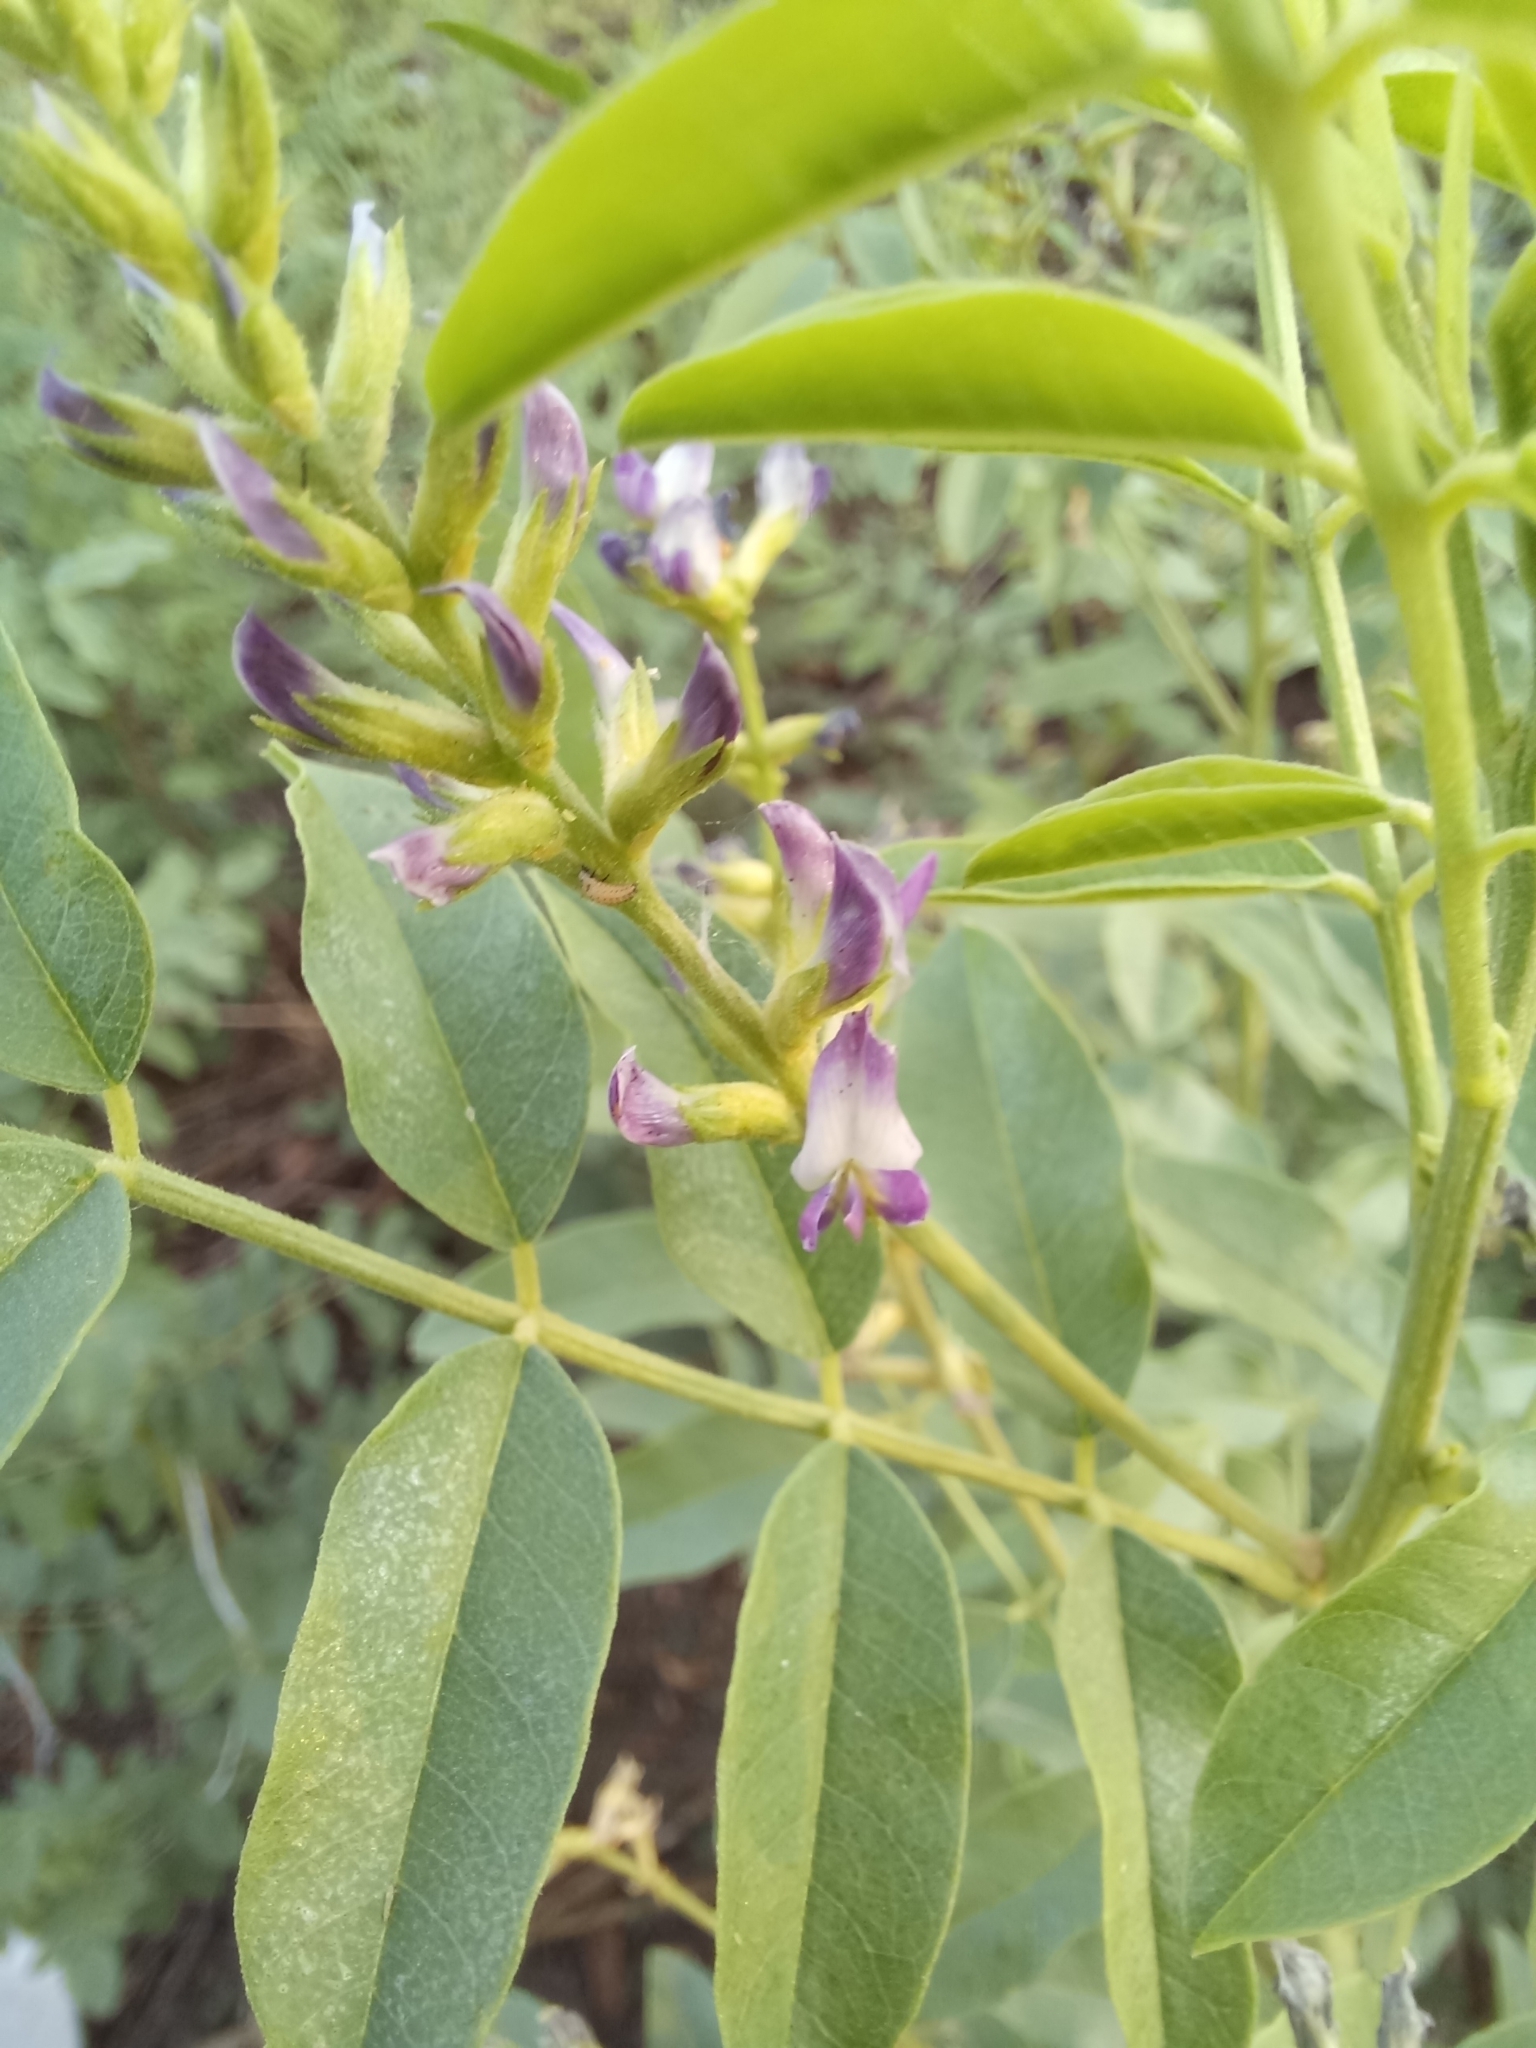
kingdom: Plantae
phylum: Tracheophyta
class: Magnoliopsida
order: Fabales
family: Fabaceae
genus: Glycyrrhiza
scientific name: Glycyrrhiza glabra
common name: Liquorice
